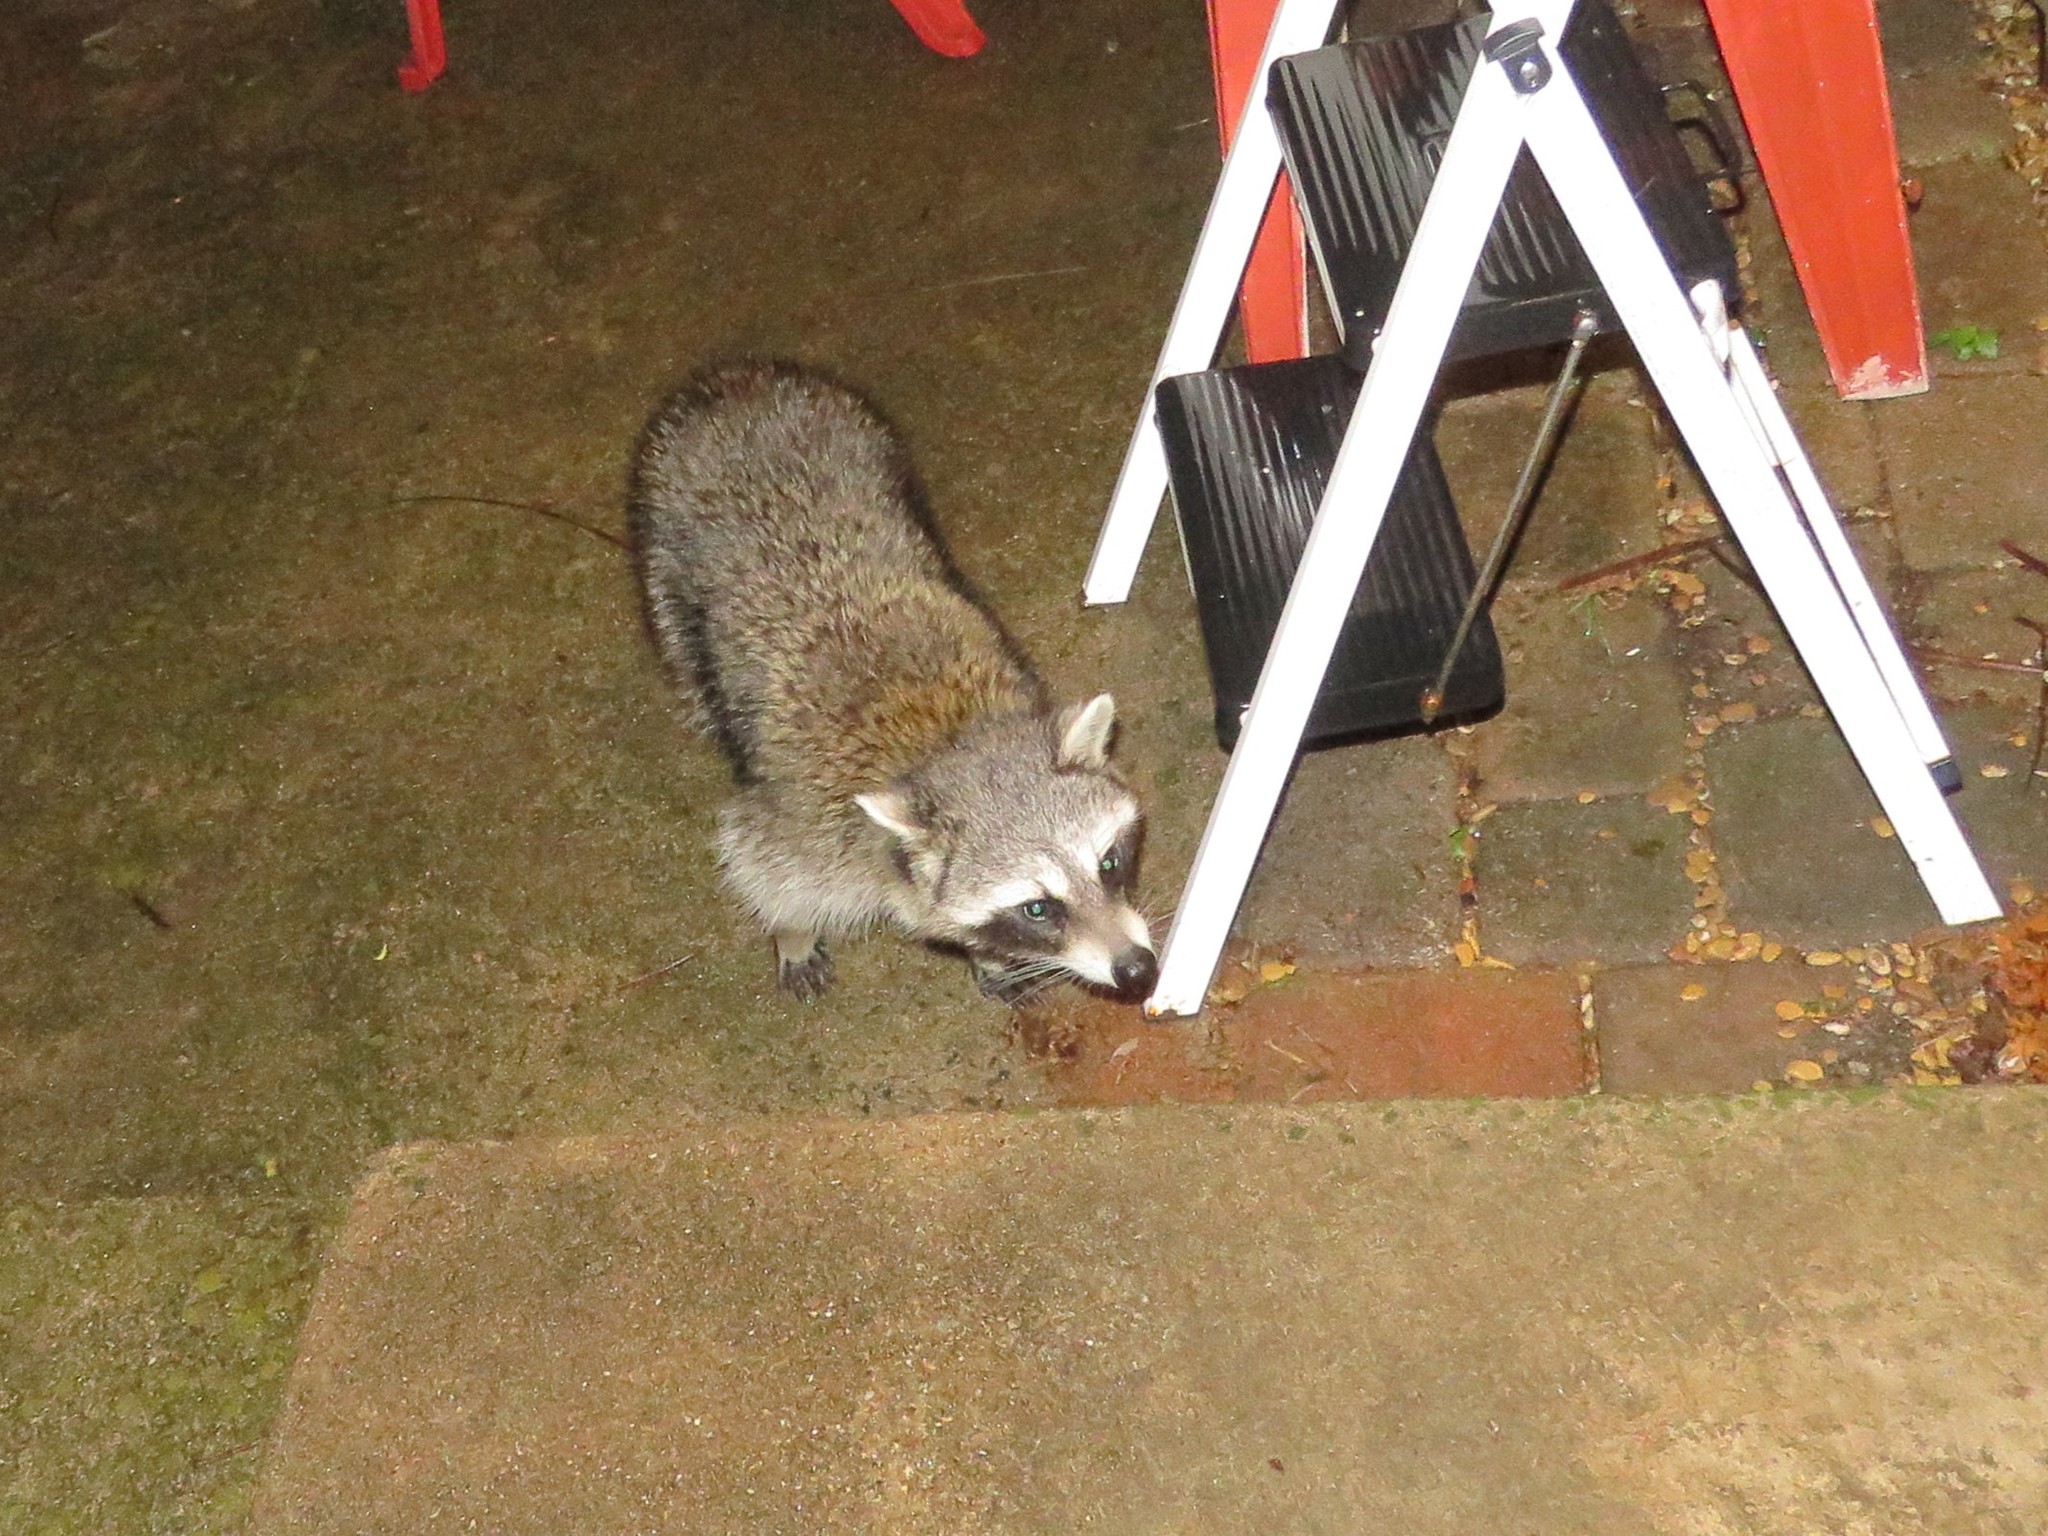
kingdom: Animalia
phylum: Chordata
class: Mammalia
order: Carnivora
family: Procyonidae
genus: Procyon
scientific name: Procyon lotor
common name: Raccoon
